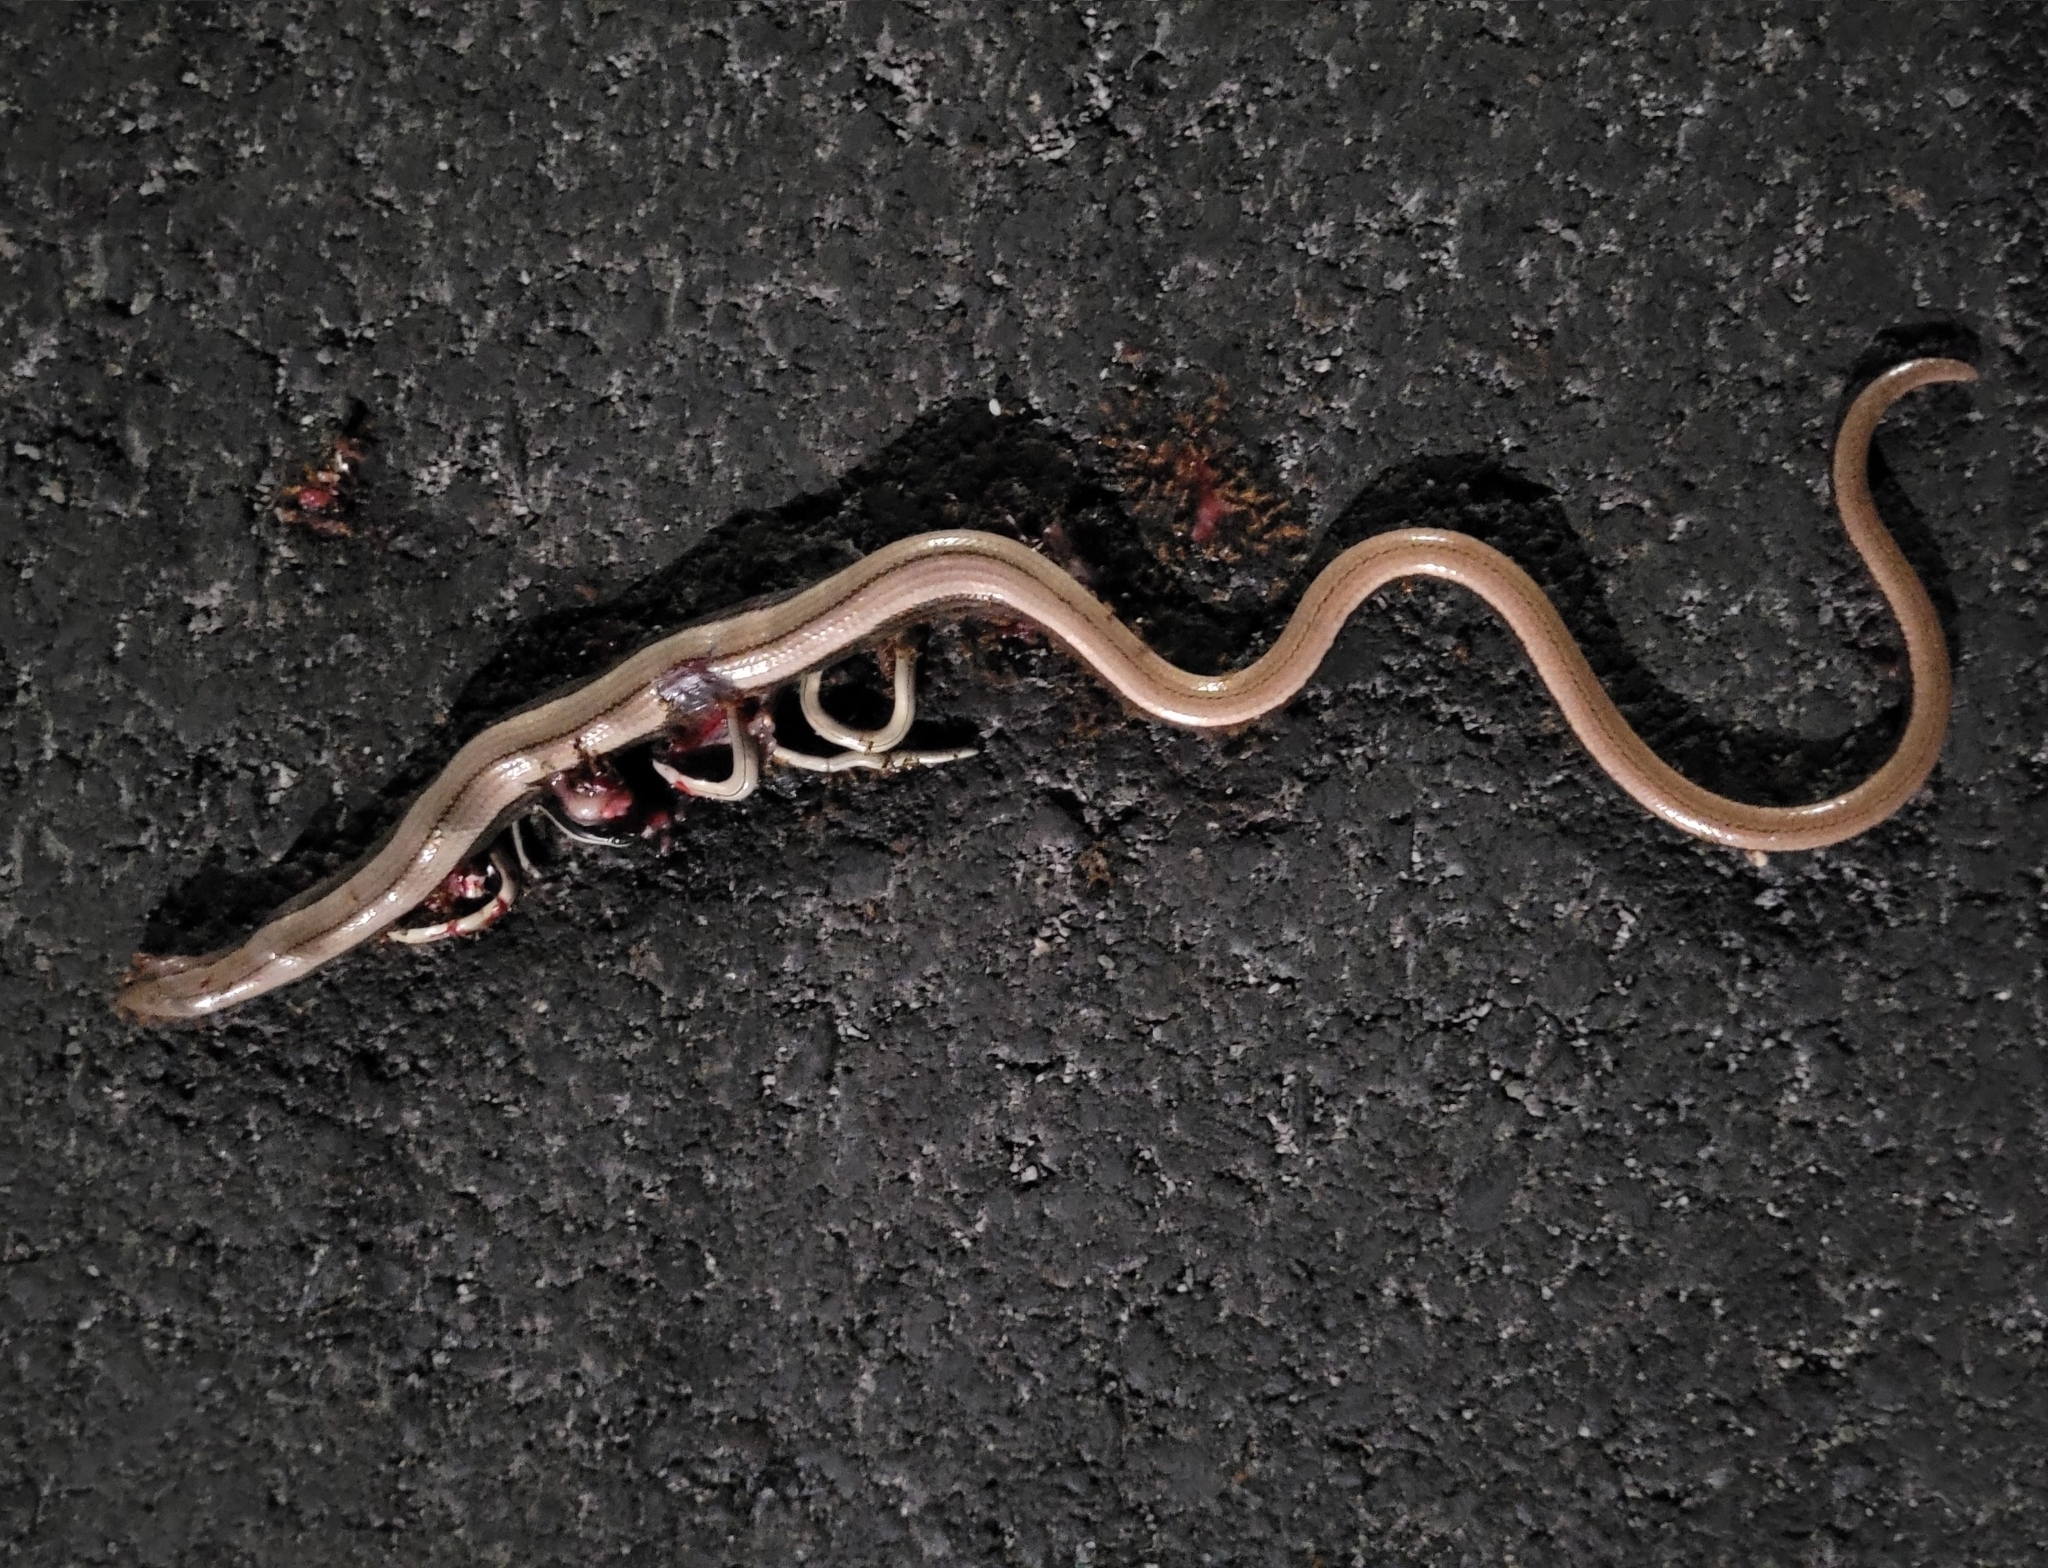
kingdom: Animalia
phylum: Chordata
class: Squamata
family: Anguidae
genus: Anguis
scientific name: Anguis veronensis
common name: Italian slow worm
